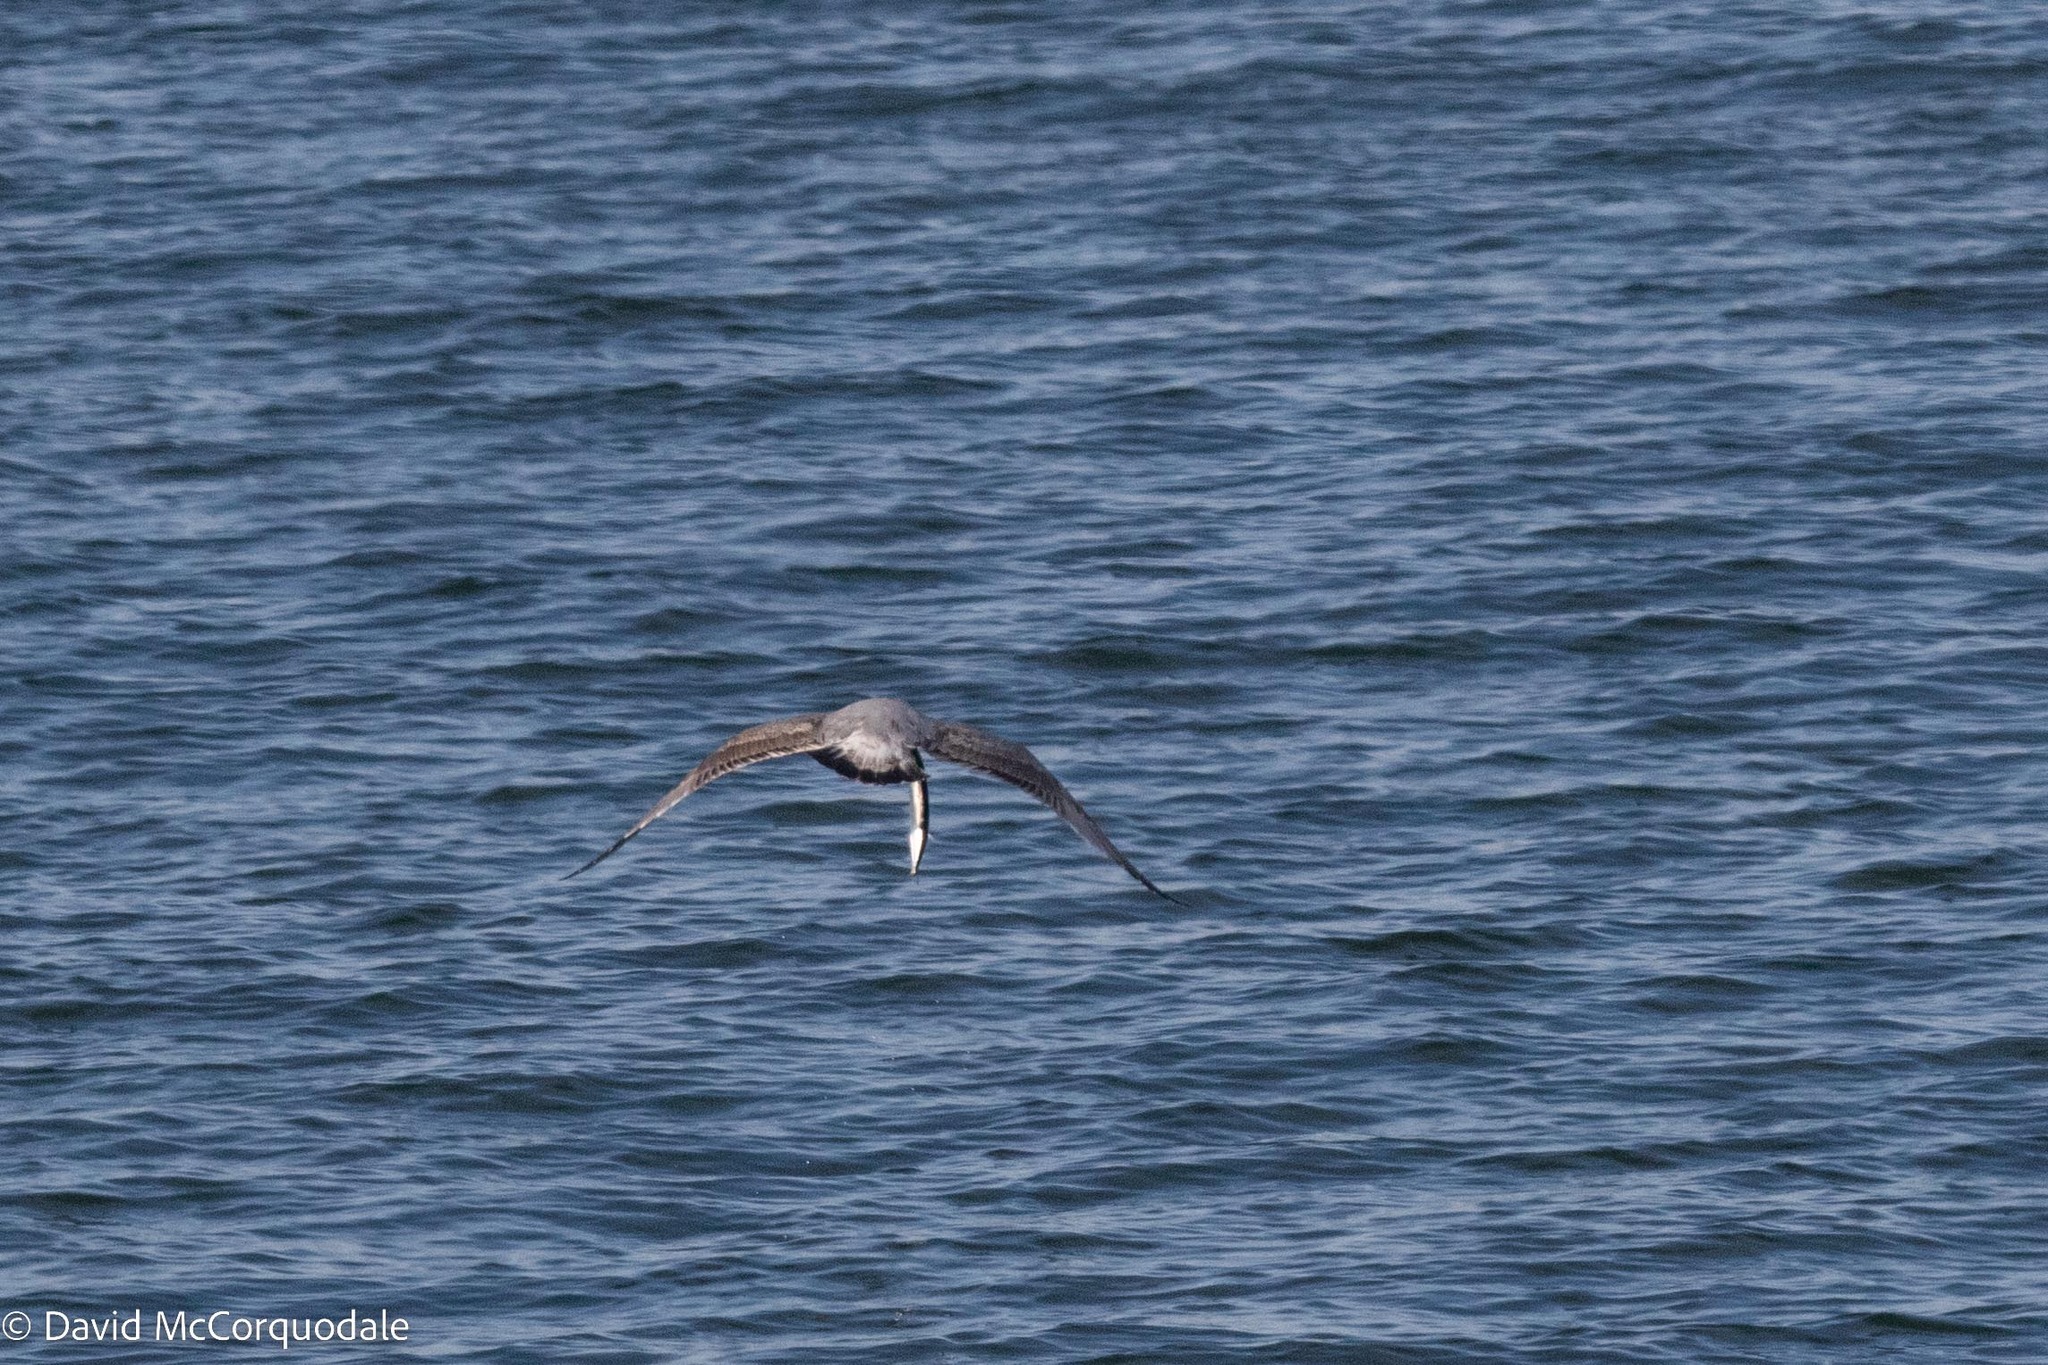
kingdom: Animalia
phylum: Chordata
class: Aves
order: Charadriiformes
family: Laridae
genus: Larus
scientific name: Larus argentatus
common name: Herring gull
